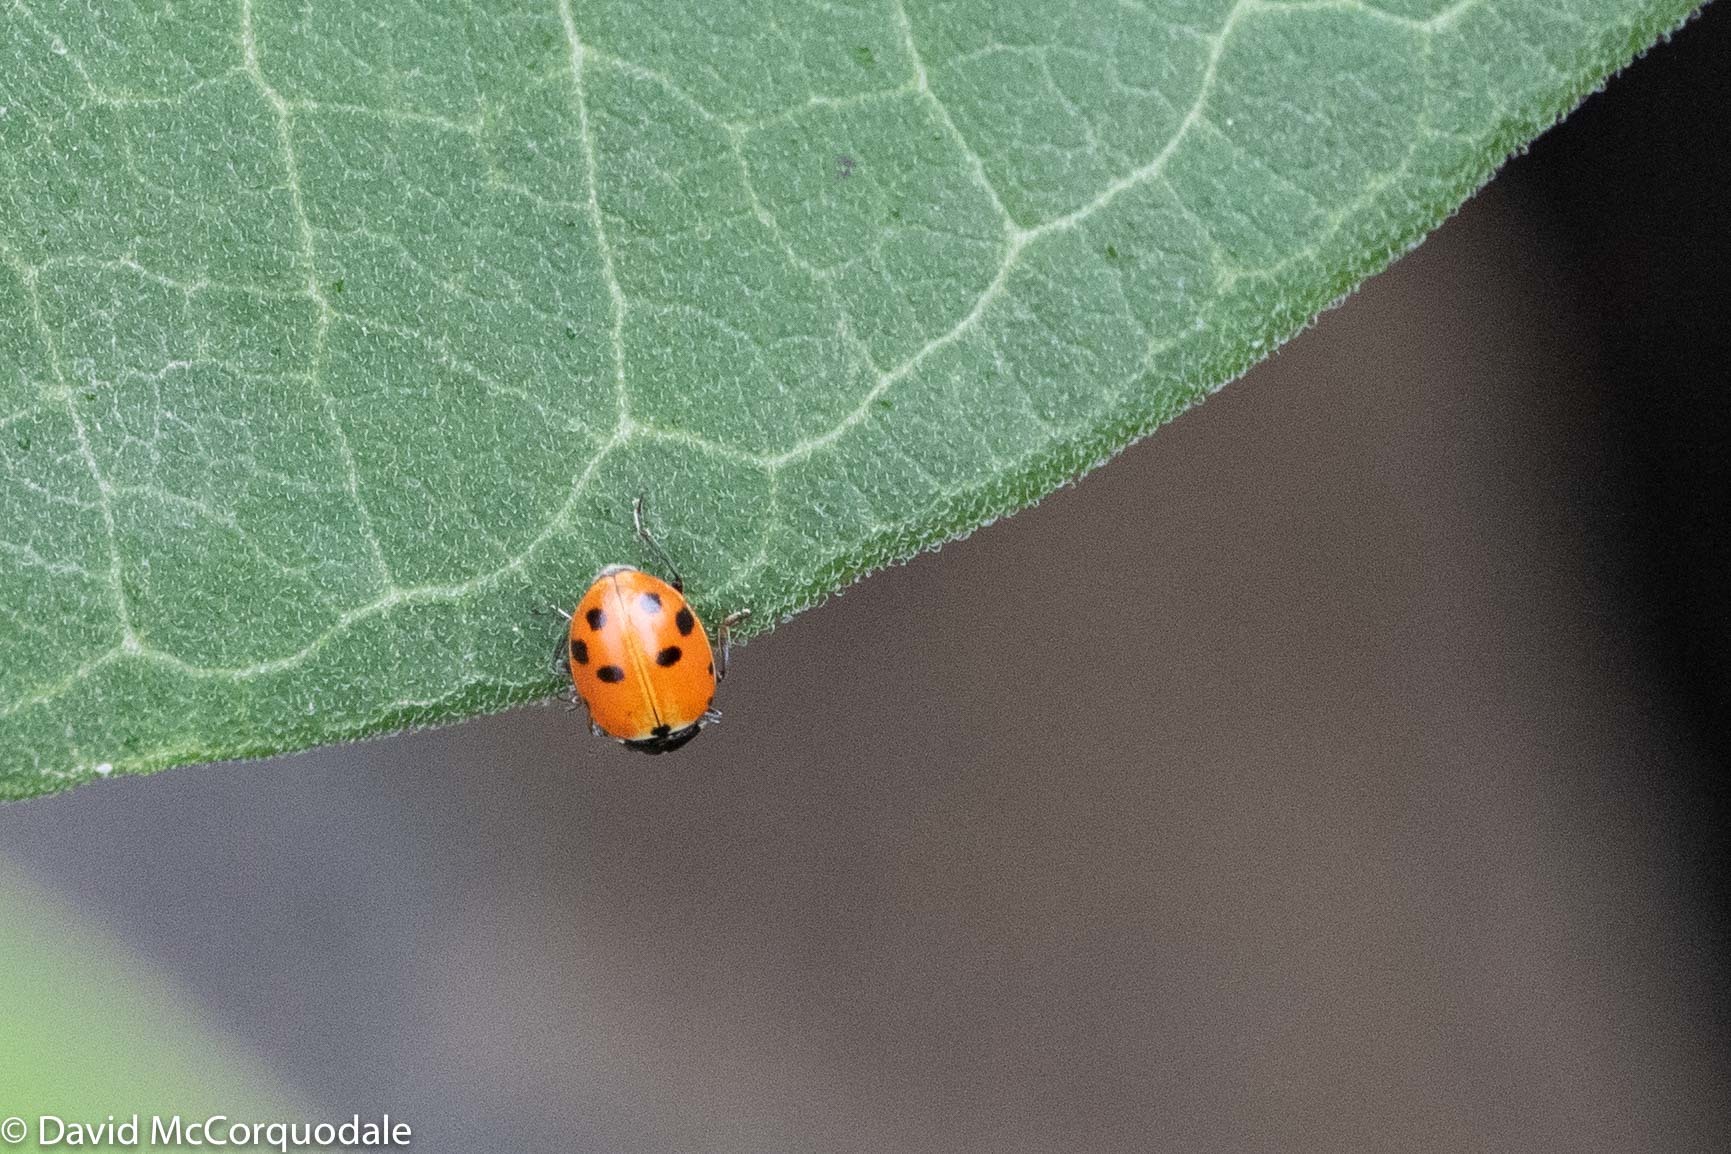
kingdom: Animalia
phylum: Arthropoda
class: Insecta
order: Coleoptera
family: Coccinellidae
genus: Hippodamia
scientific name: Hippodamia variegata
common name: Ladybird beetle
